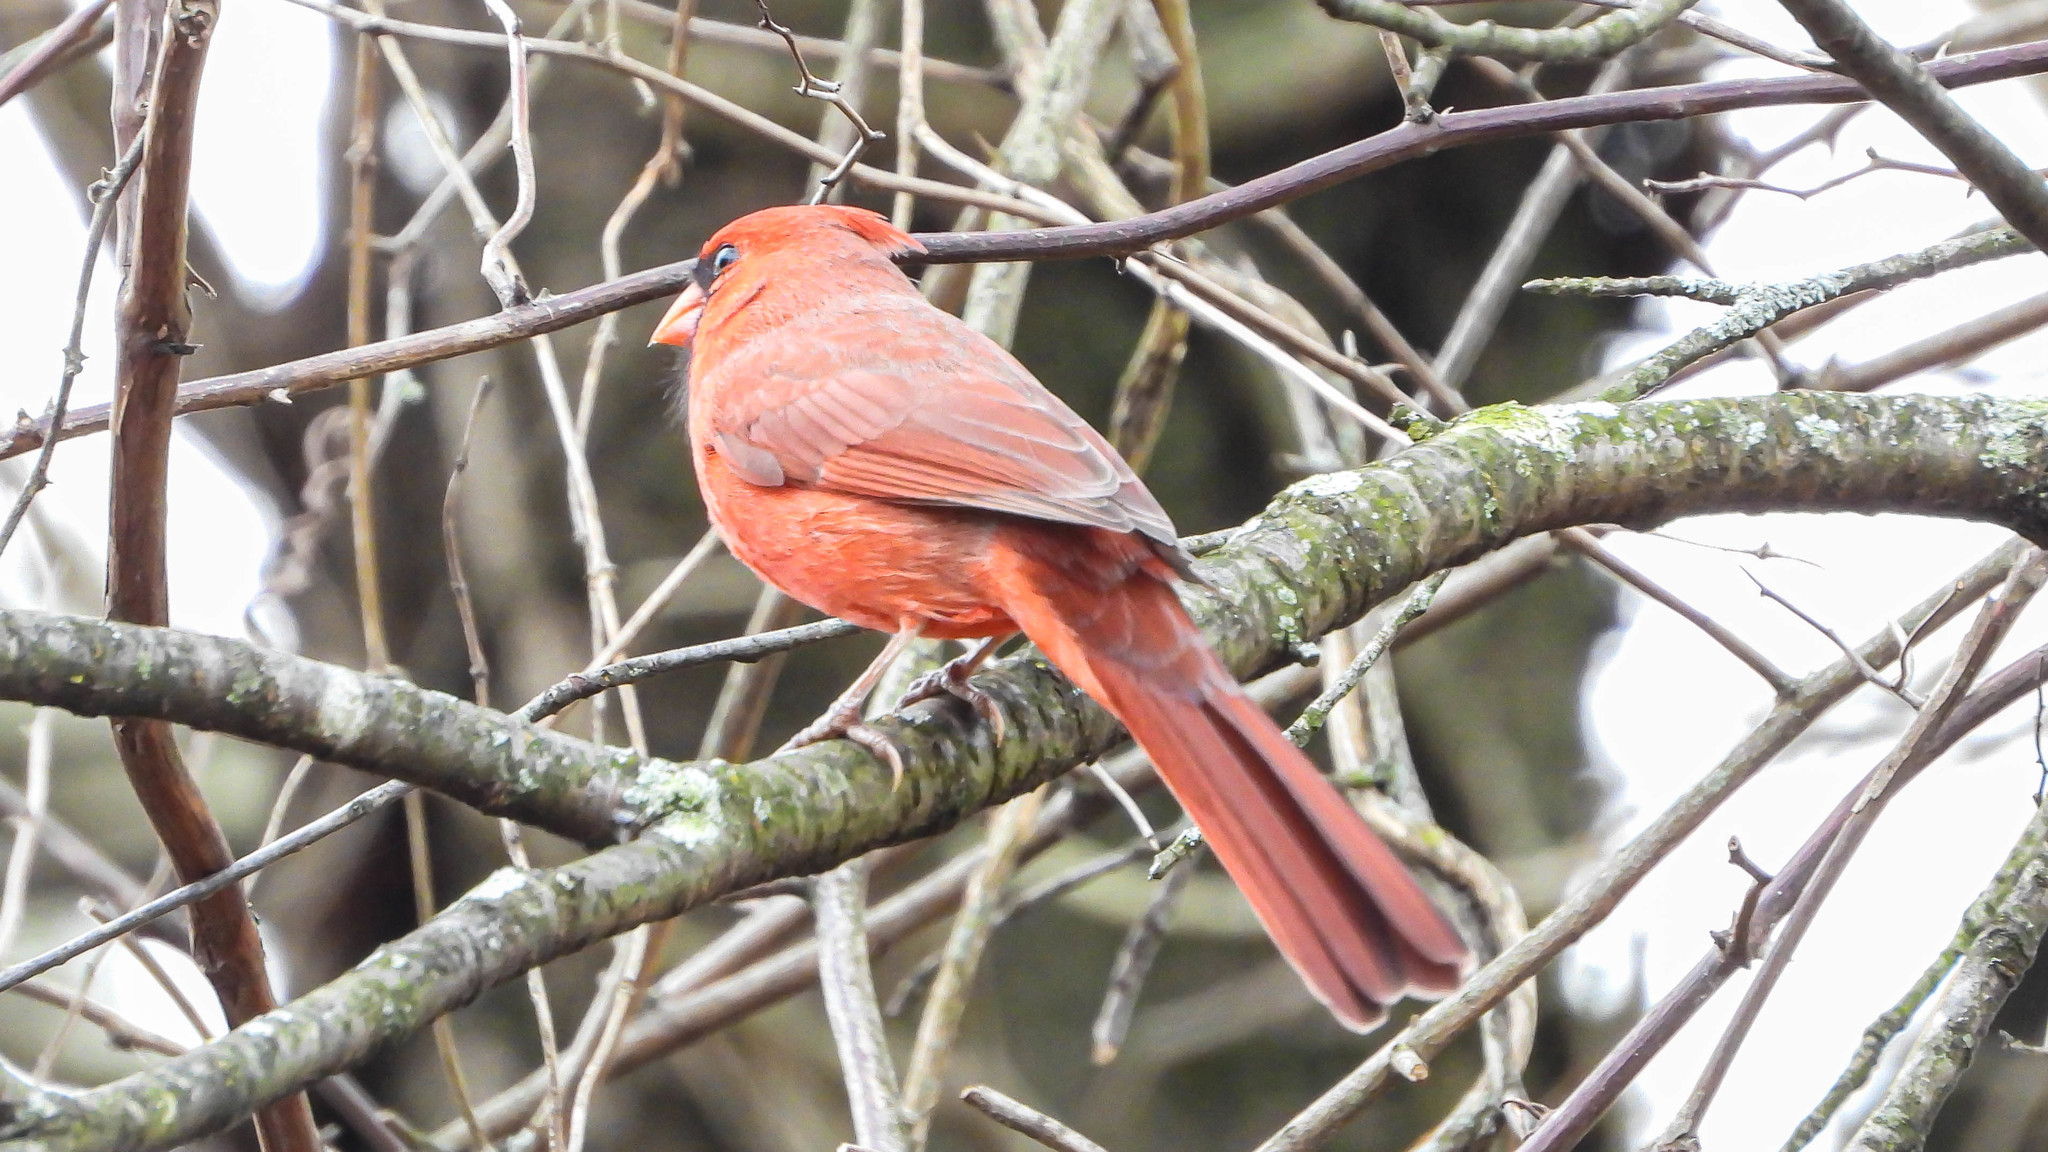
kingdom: Animalia
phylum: Chordata
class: Aves
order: Passeriformes
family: Cardinalidae
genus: Cardinalis
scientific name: Cardinalis cardinalis
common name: Northern cardinal
